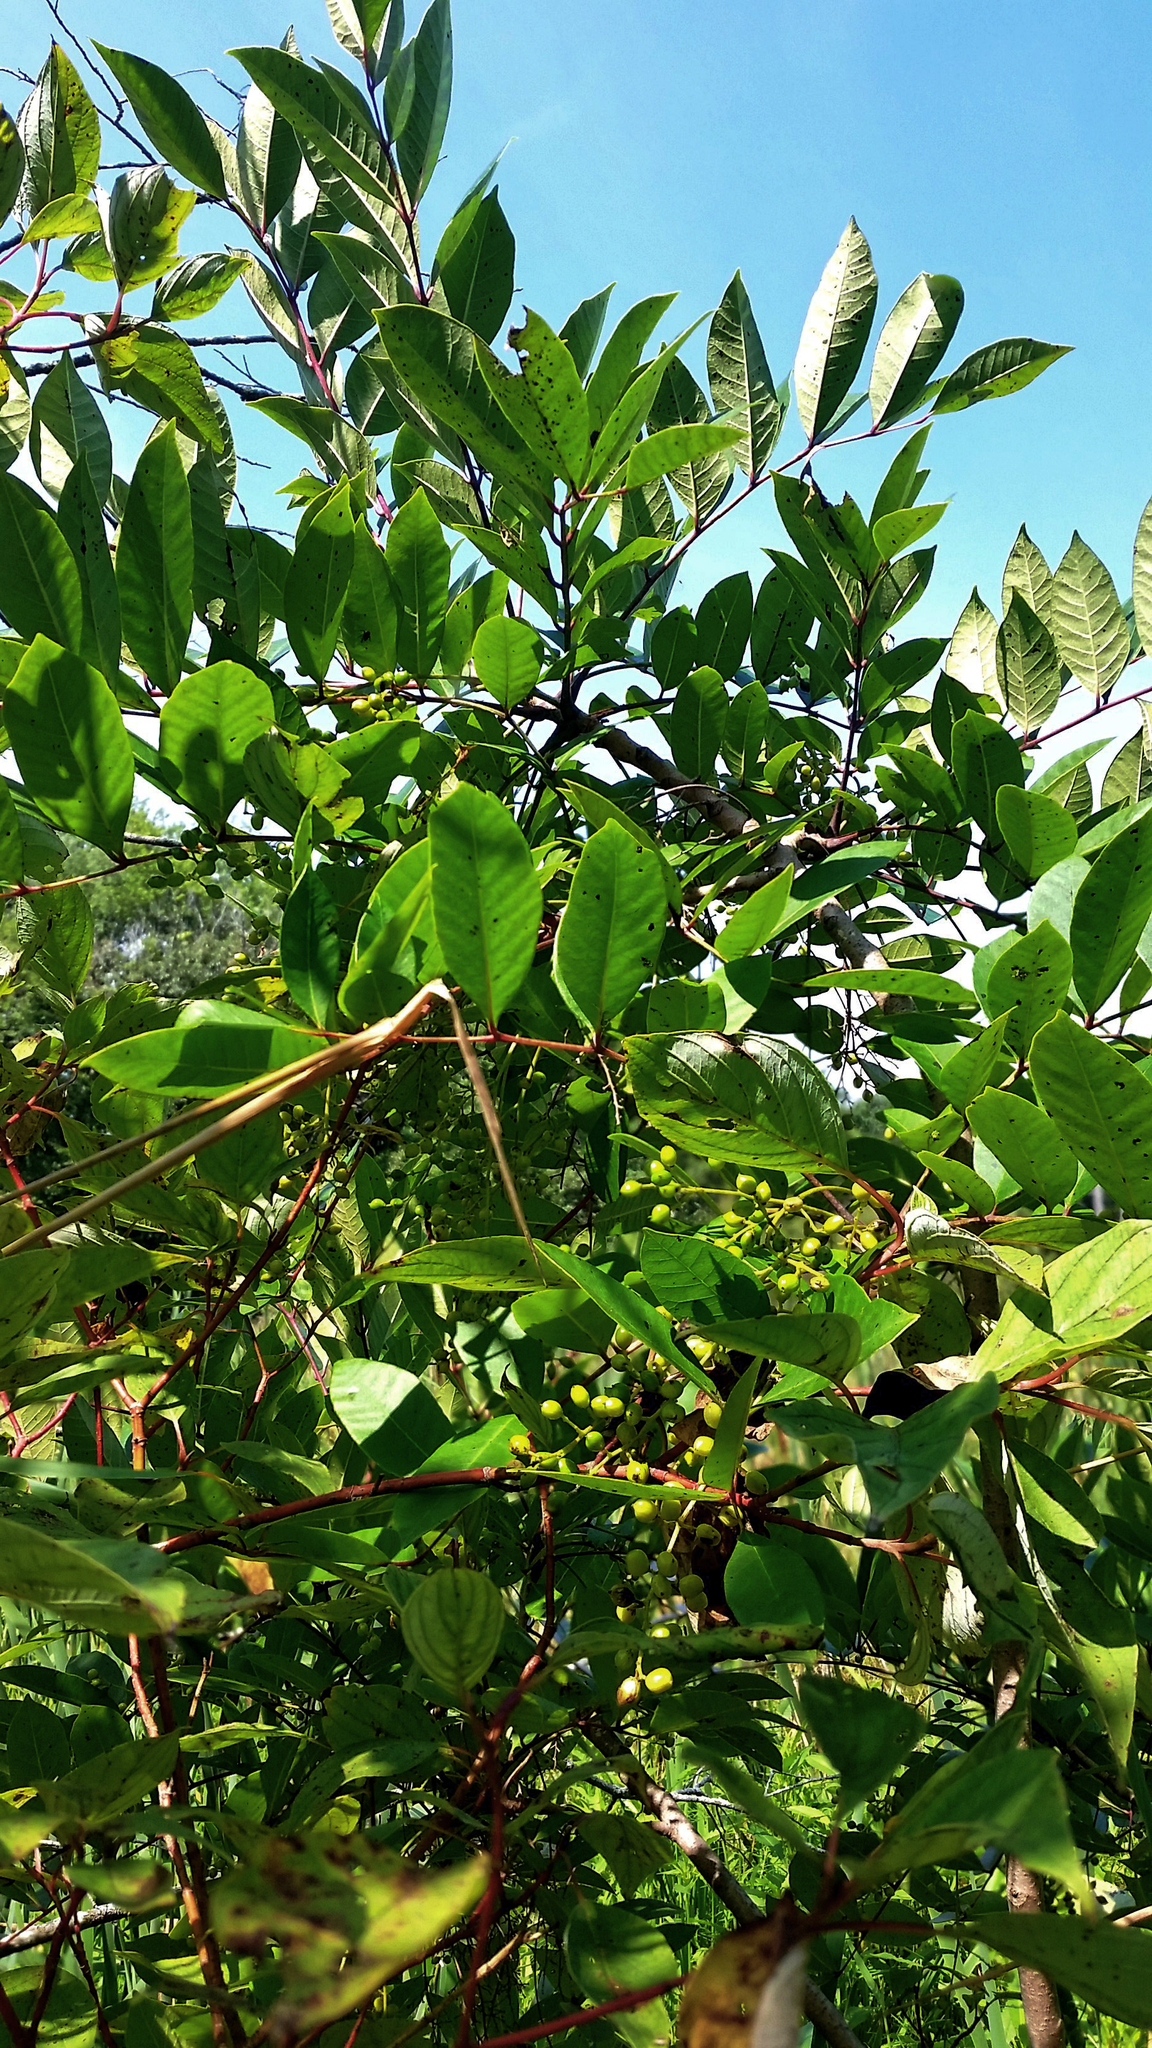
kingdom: Plantae
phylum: Tracheophyta
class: Magnoliopsida
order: Sapindales
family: Anacardiaceae
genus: Toxicodendron
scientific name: Toxicodendron vernix
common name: Poison sumac
